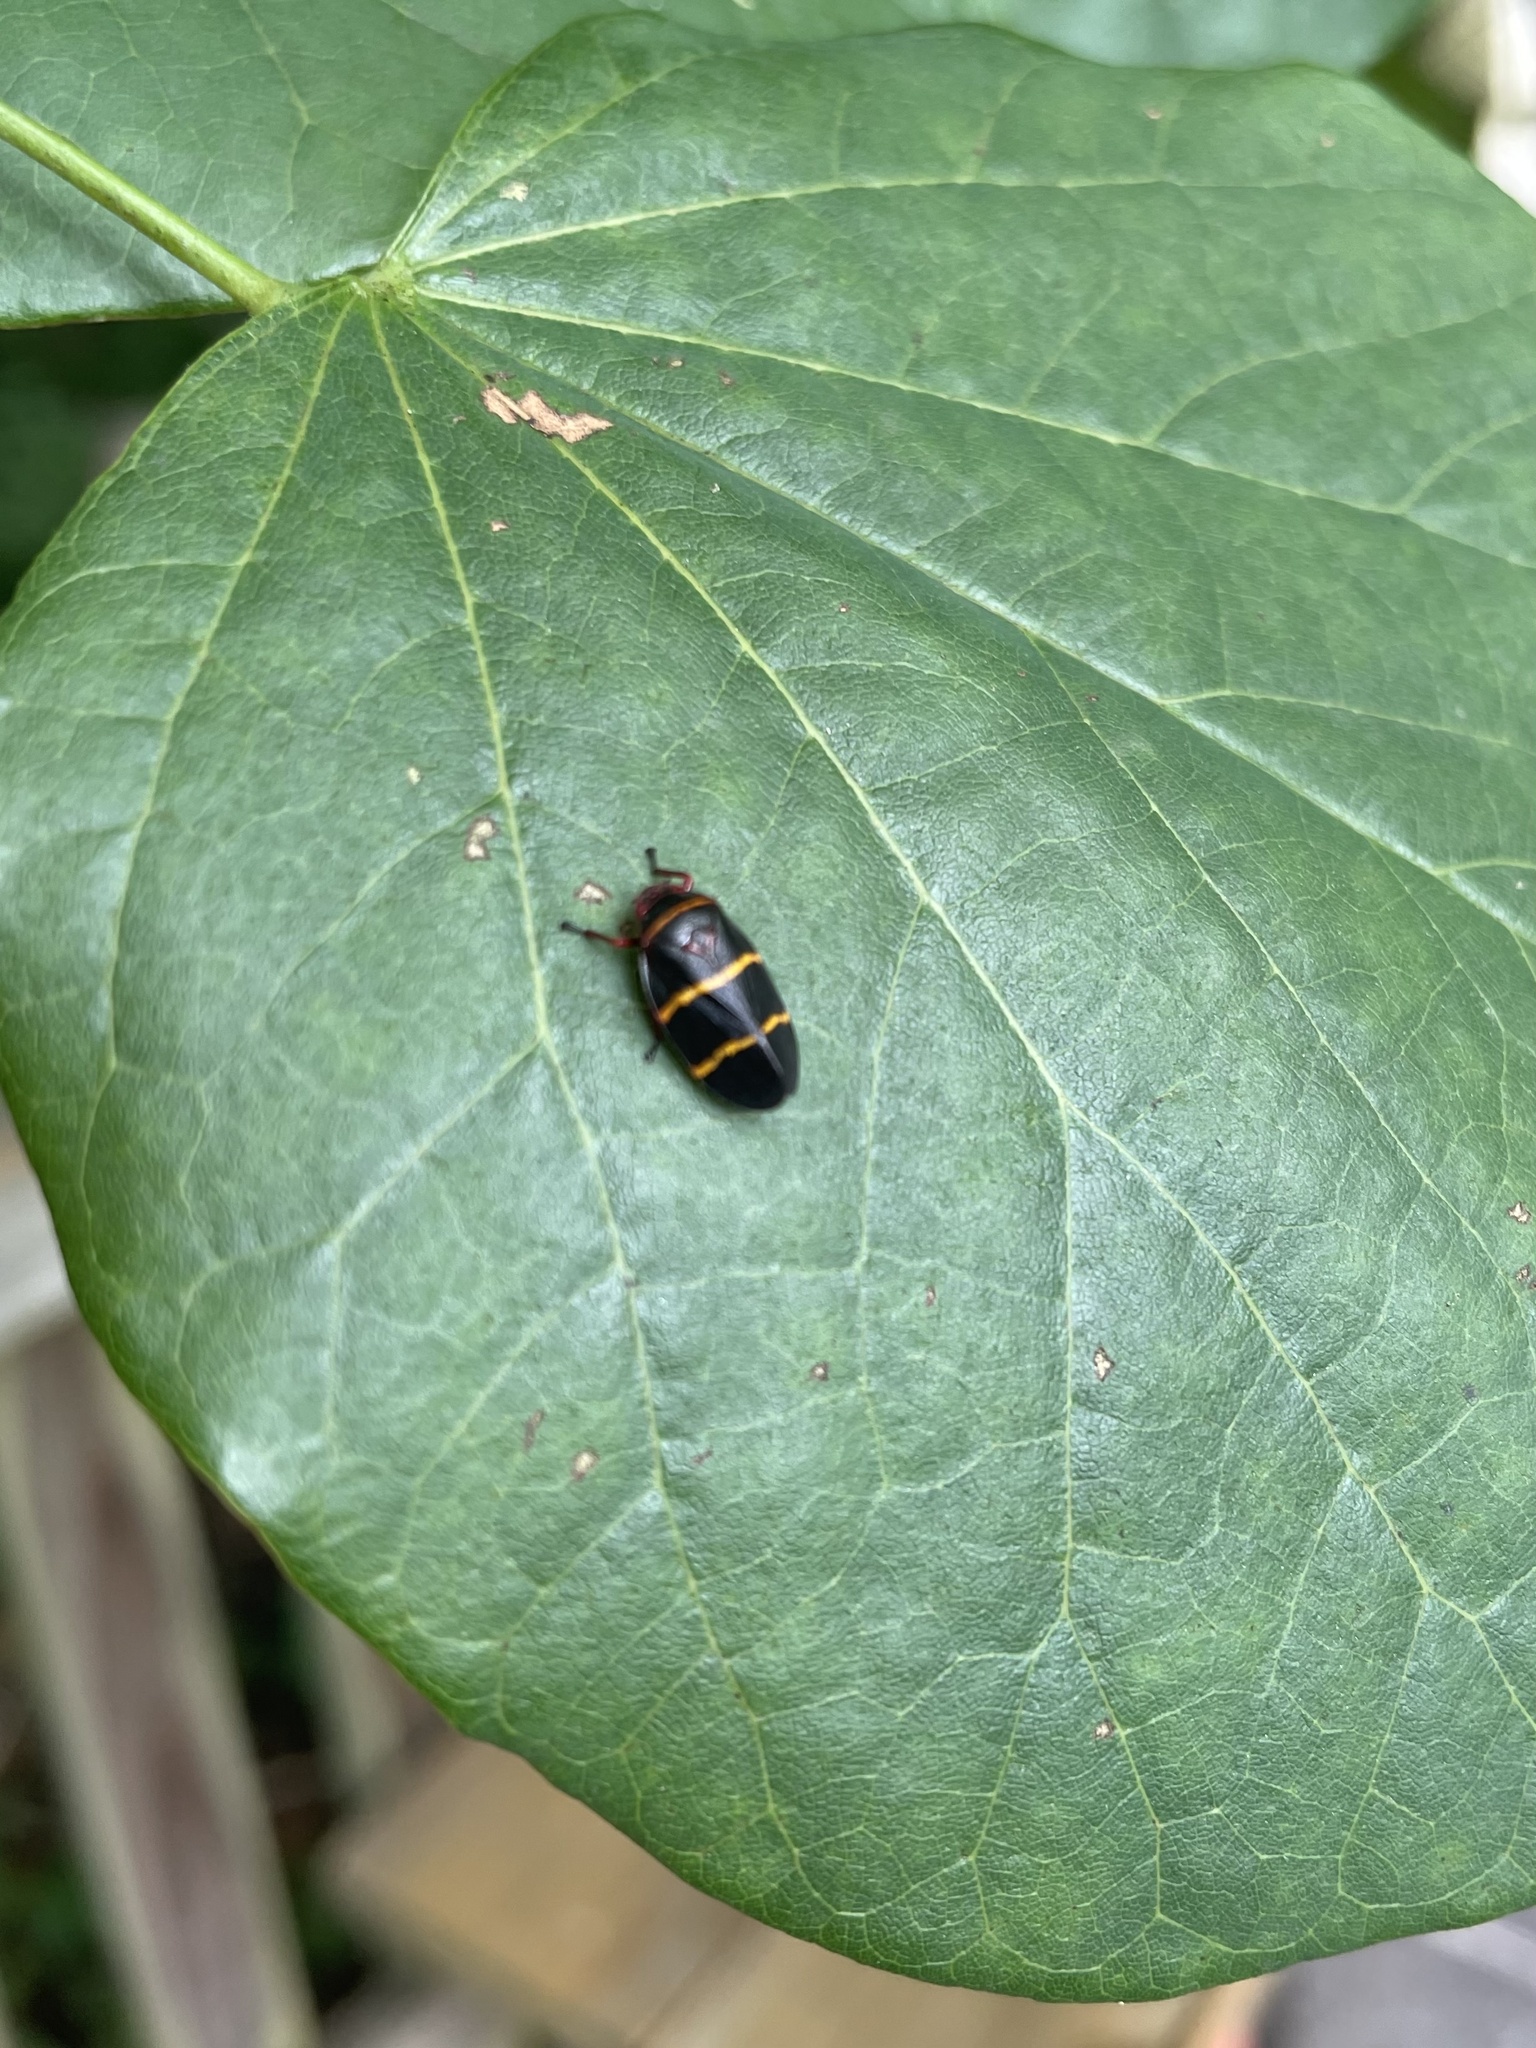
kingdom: Animalia
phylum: Arthropoda
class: Insecta
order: Hemiptera
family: Cercopidae
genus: Prosapia
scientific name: Prosapia bicincta
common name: Twolined spittlebug
